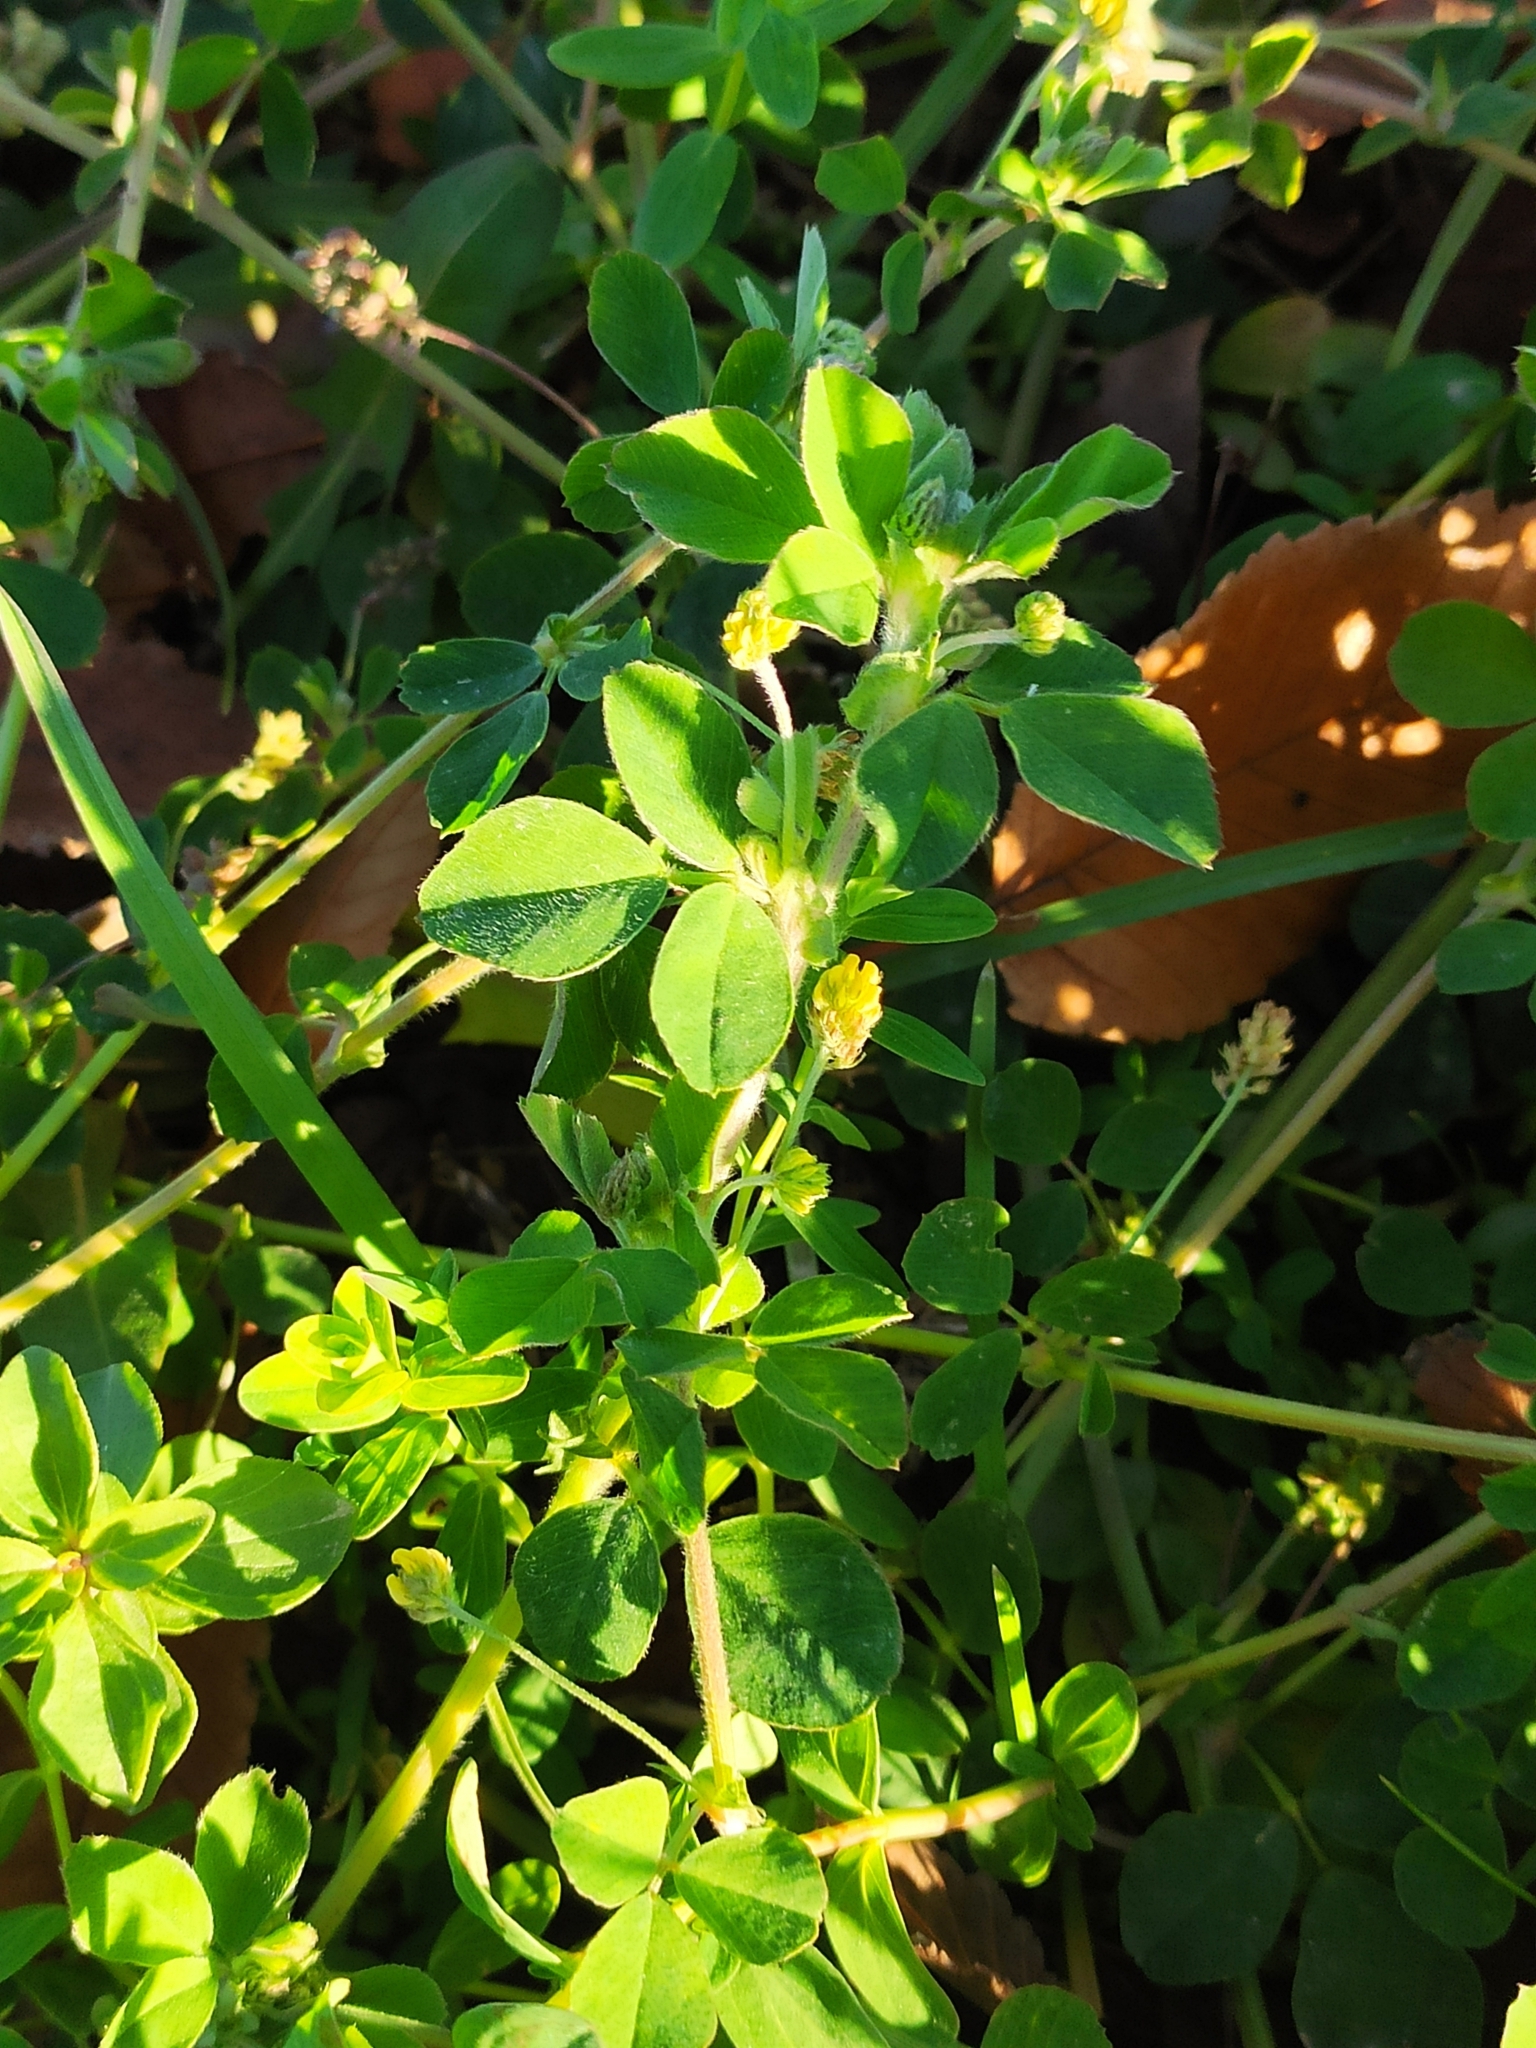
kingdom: Plantae
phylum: Tracheophyta
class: Magnoliopsida
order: Fabales
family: Fabaceae
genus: Medicago
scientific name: Medicago lupulina
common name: Black medick
